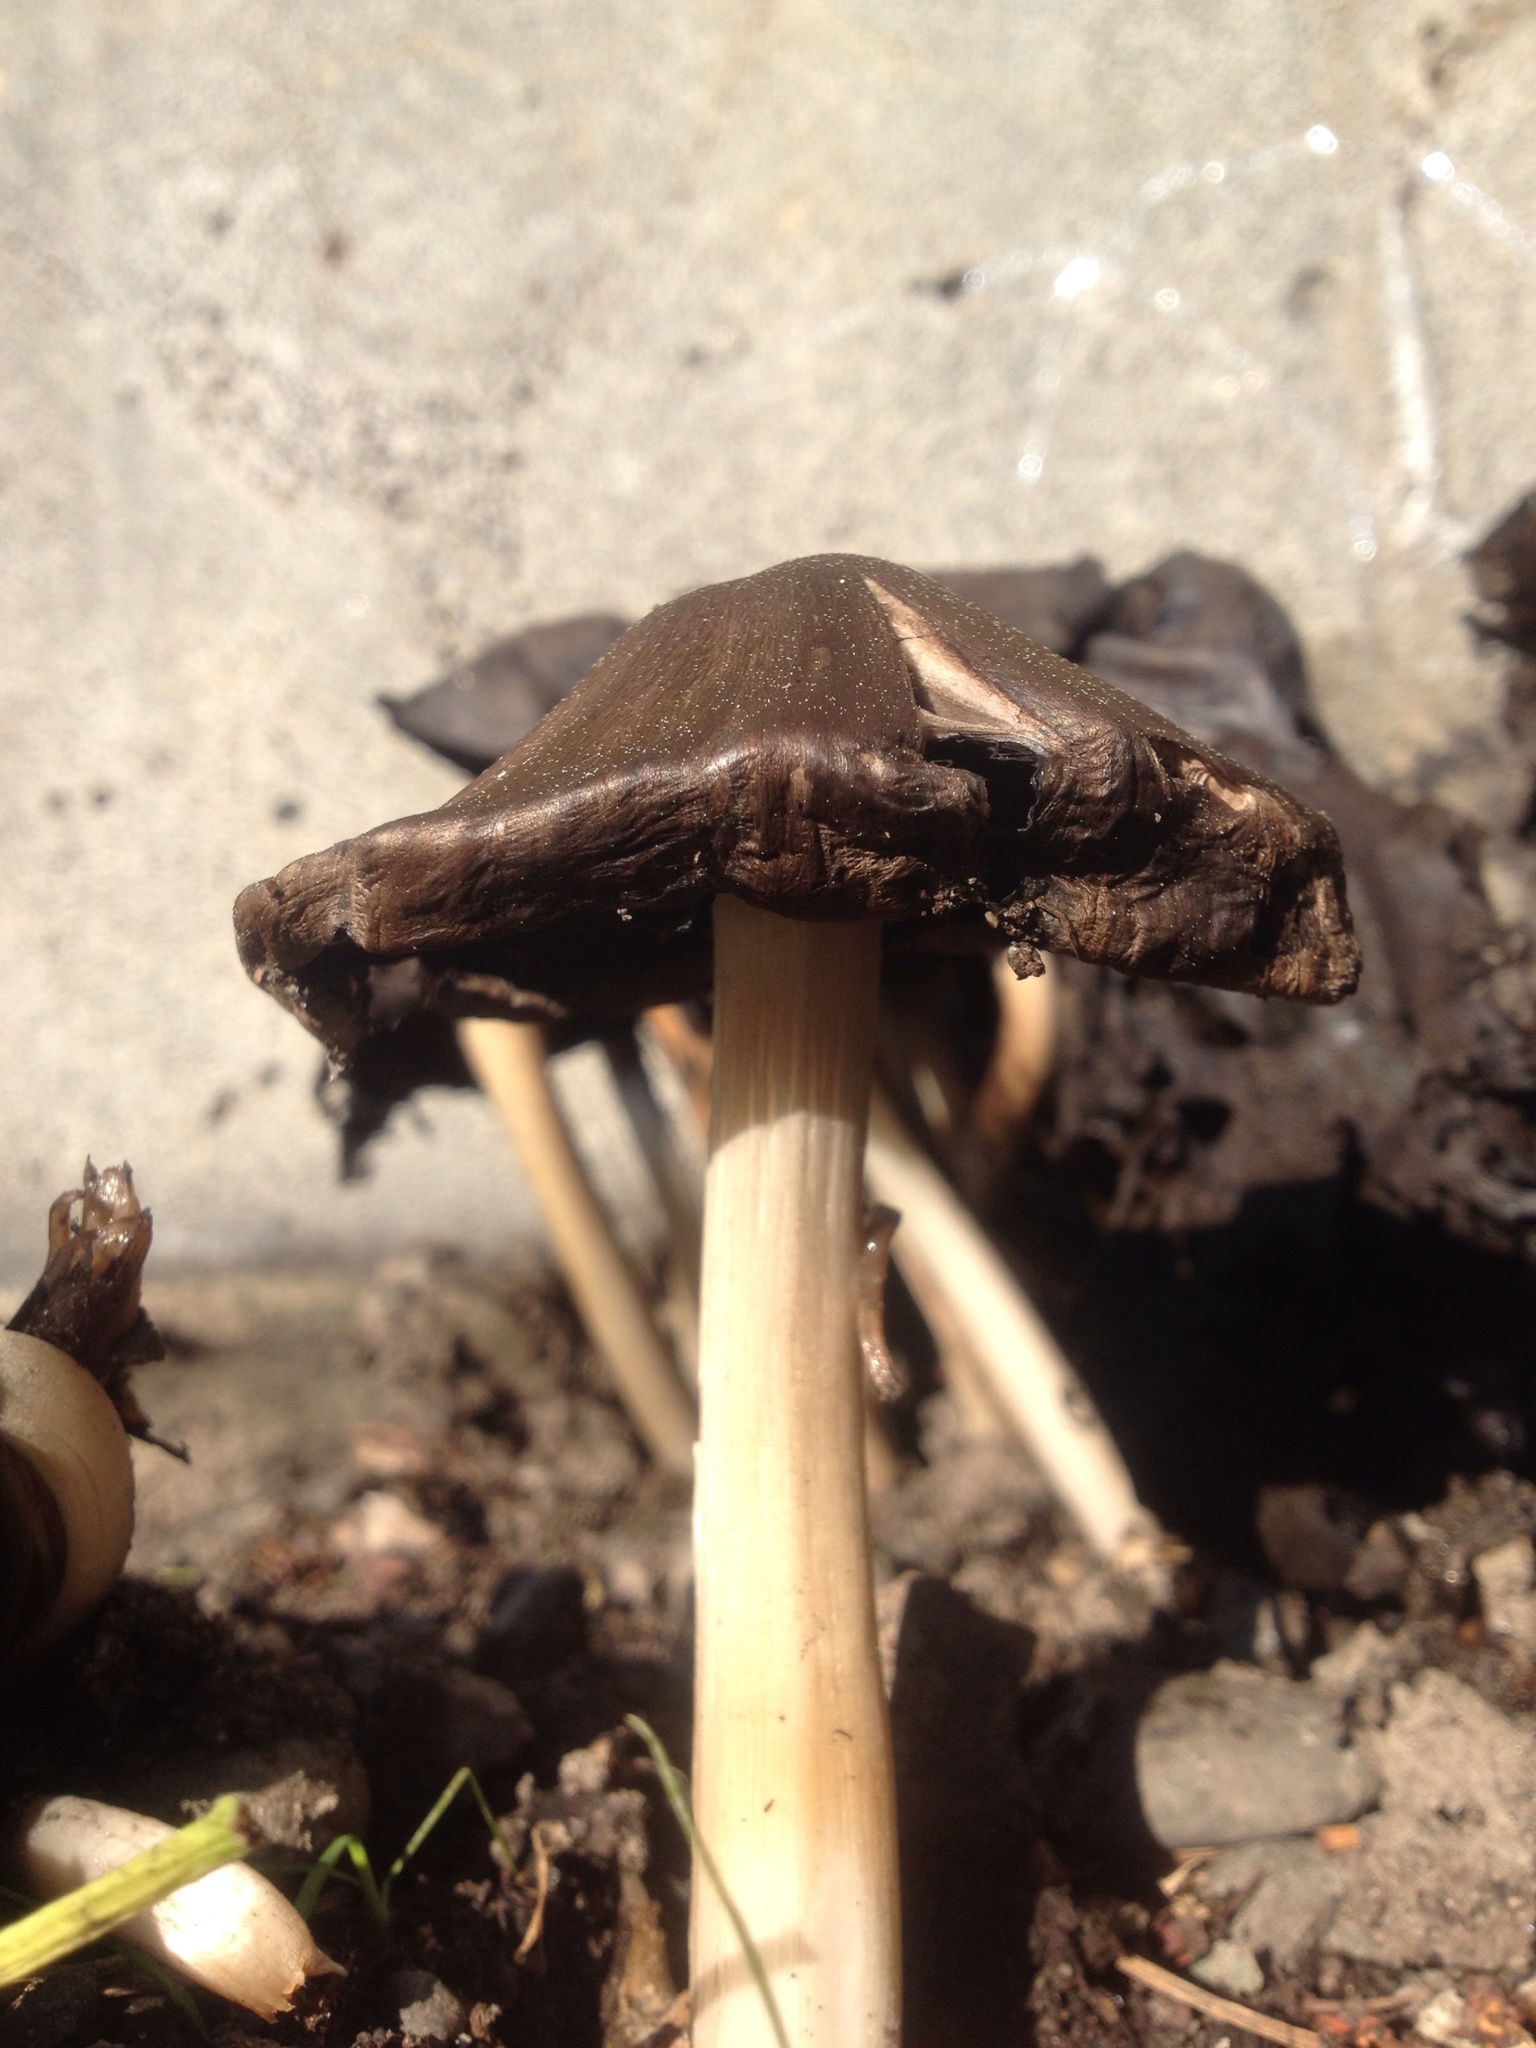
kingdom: Fungi
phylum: Basidiomycota
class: Agaricomycetes
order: Agaricales
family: Psathyrellaceae
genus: Coprinopsis
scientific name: Coprinopsis
